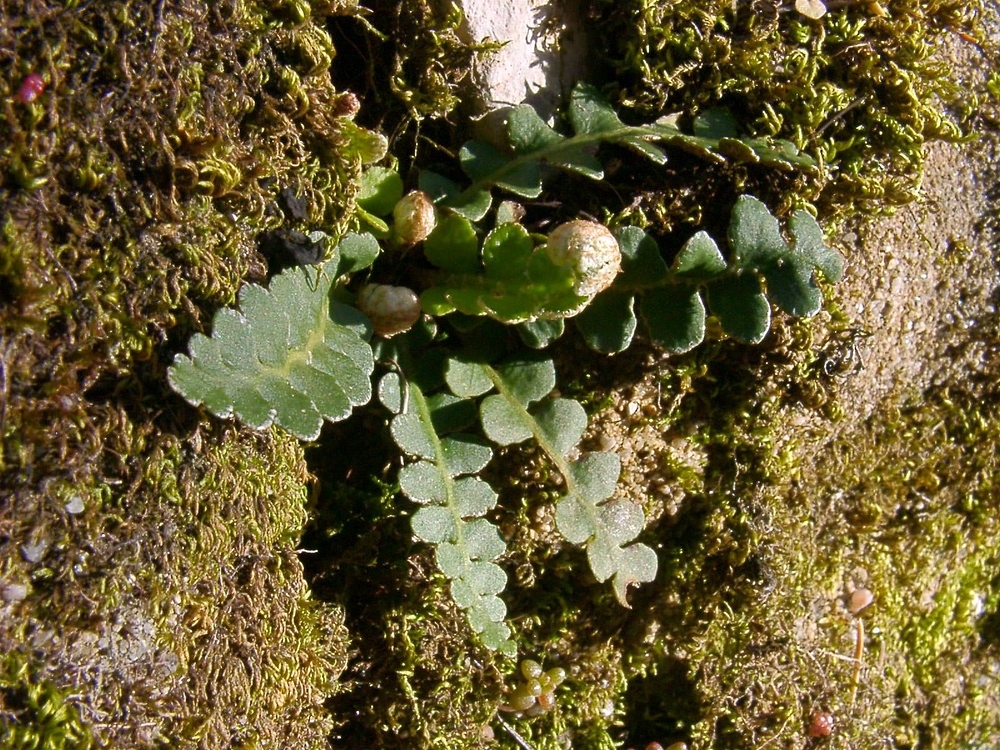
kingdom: Plantae
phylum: Tracheophyta
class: Polypodiopsida
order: Polypodiales
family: Aspleniaceae
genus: Asplenium
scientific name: Asplenium ceterach
